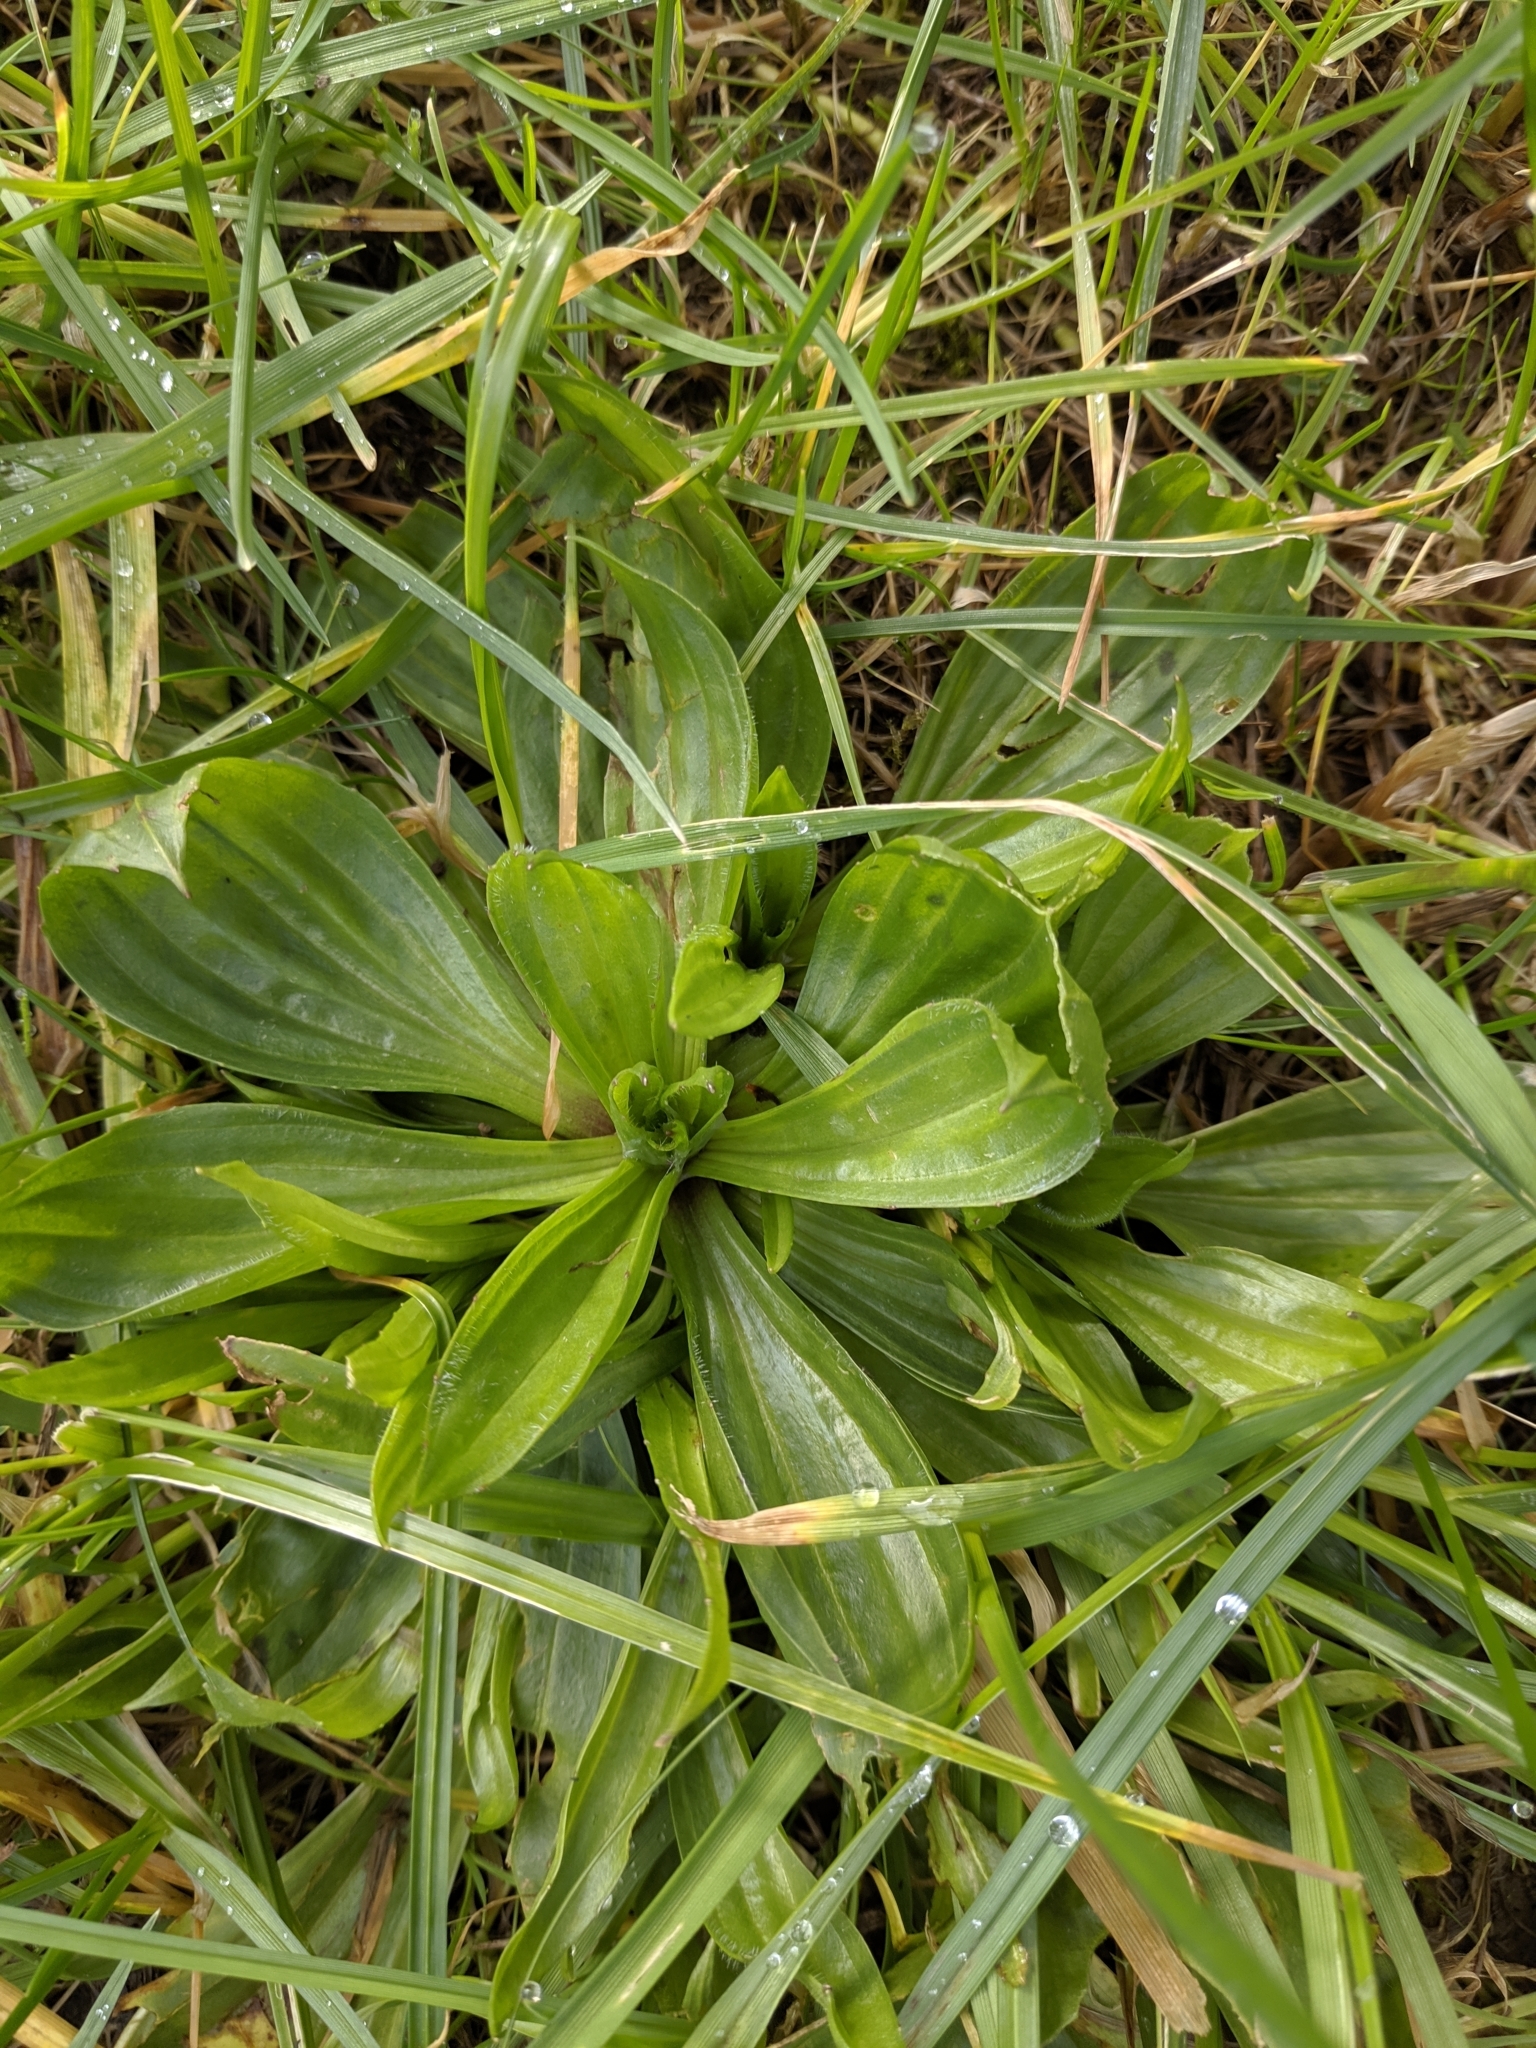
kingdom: Plantae
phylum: Tracheophyta
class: Magnoliopsida
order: Lamiales
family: Plantaginaceae
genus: Plantago
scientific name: Plantago lanceolata
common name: Ribwort plantain
